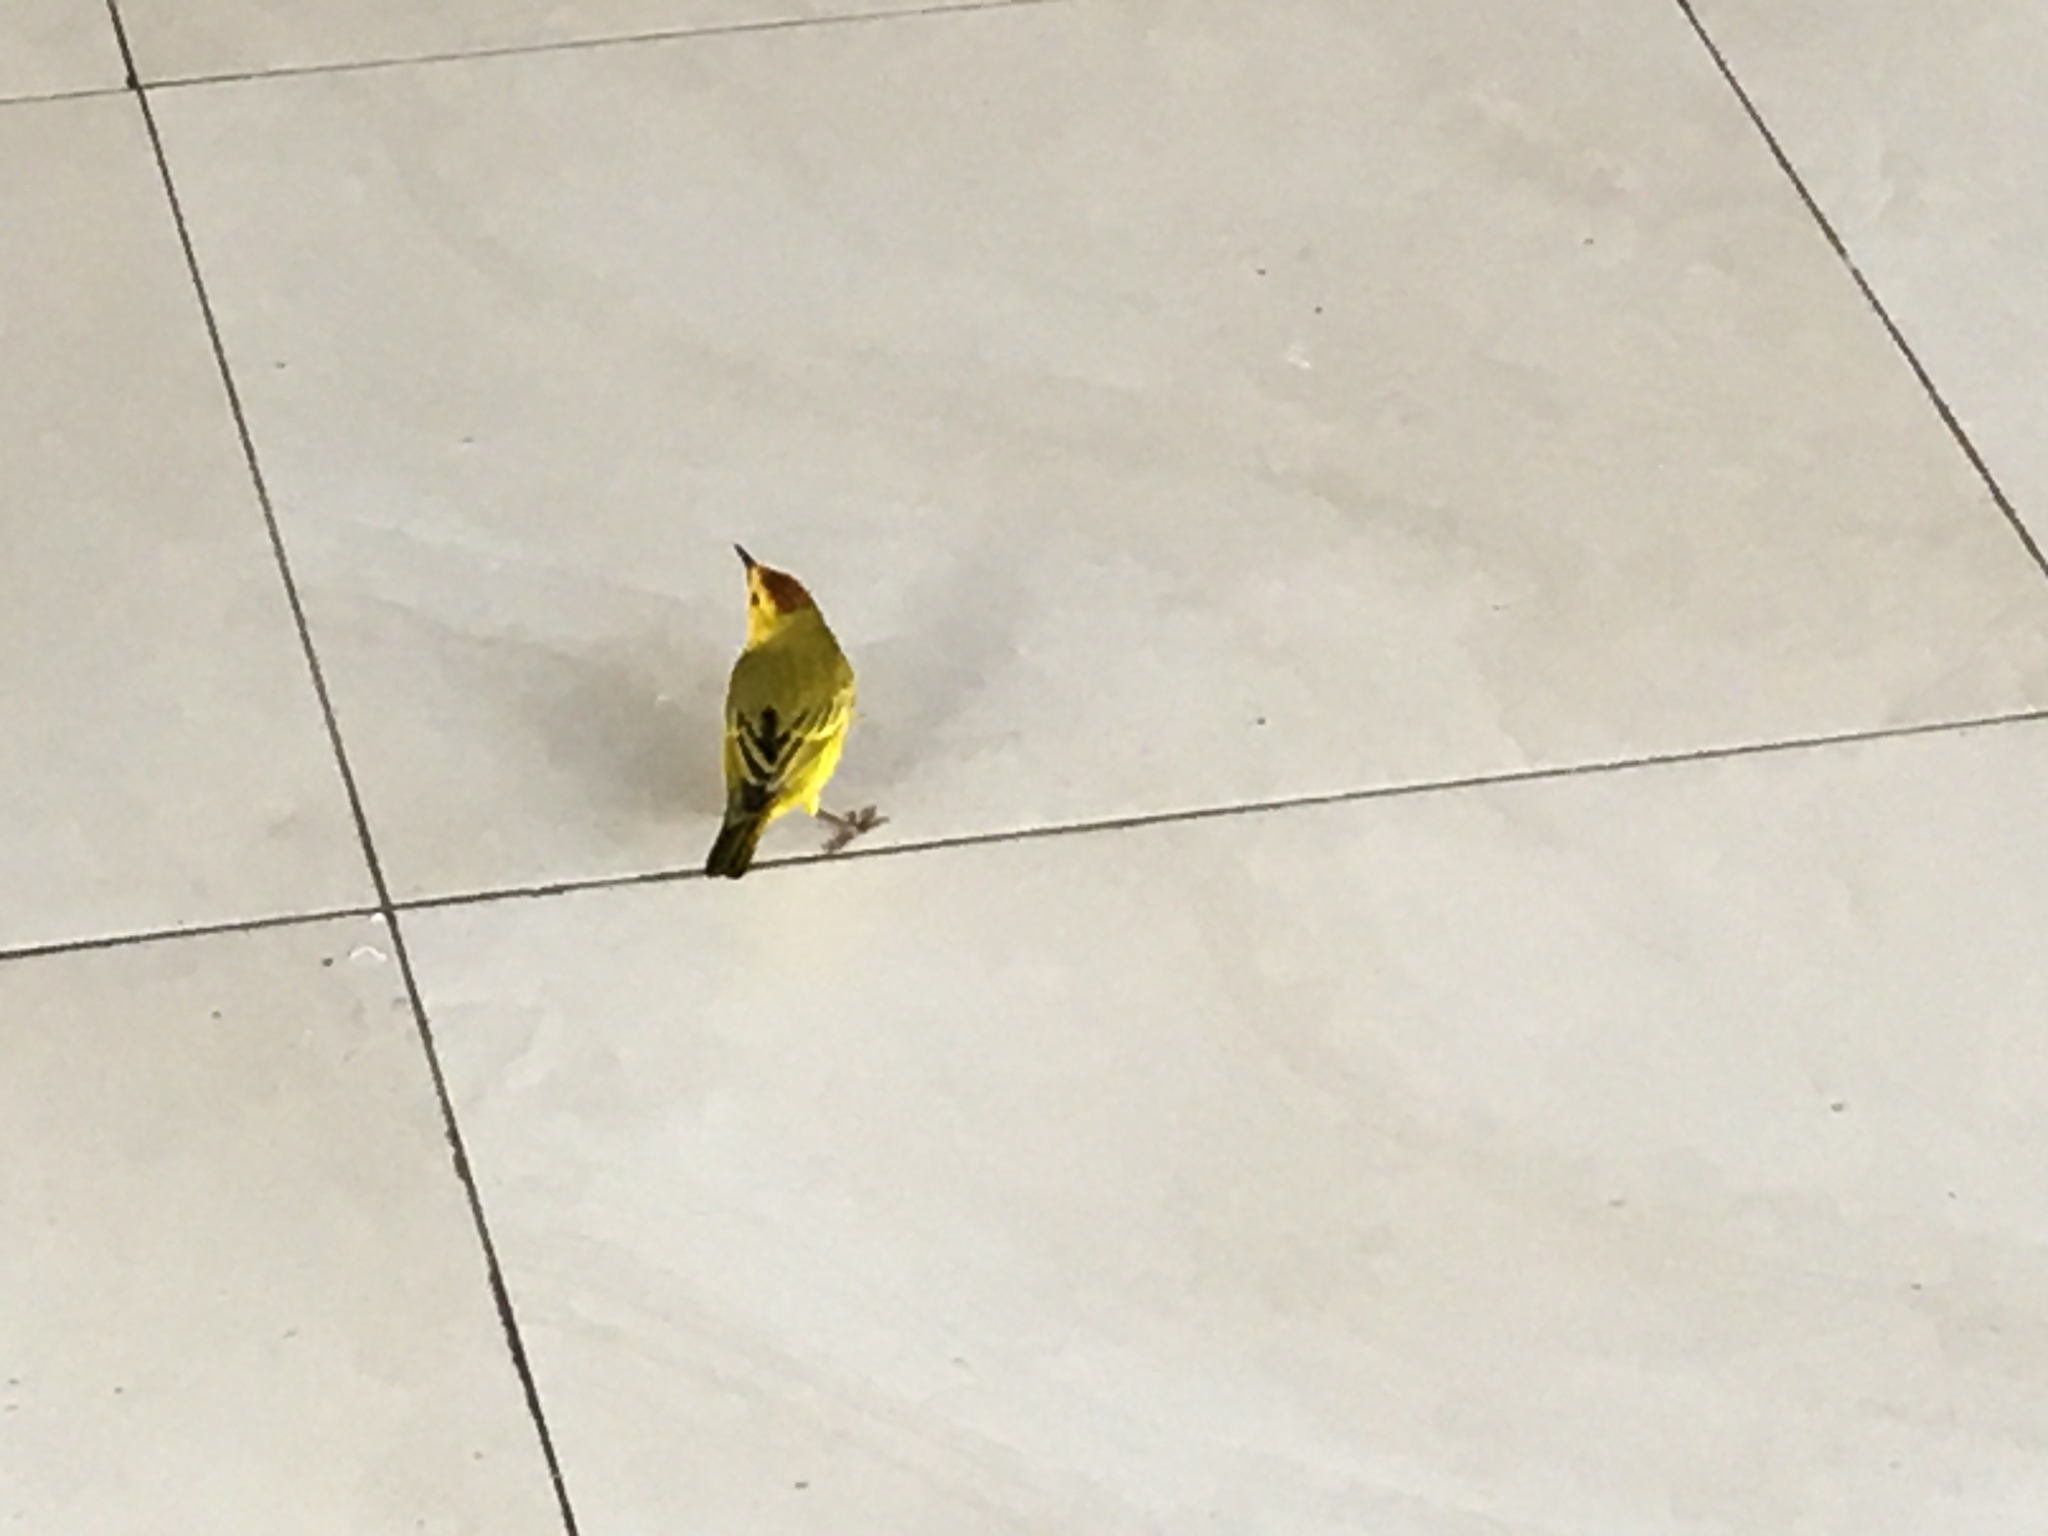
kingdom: Animalia
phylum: Chordata
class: Aves
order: Passeriformes
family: Parulidae
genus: Setophaga
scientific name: Setophaga petechia
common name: Yellow warbler
